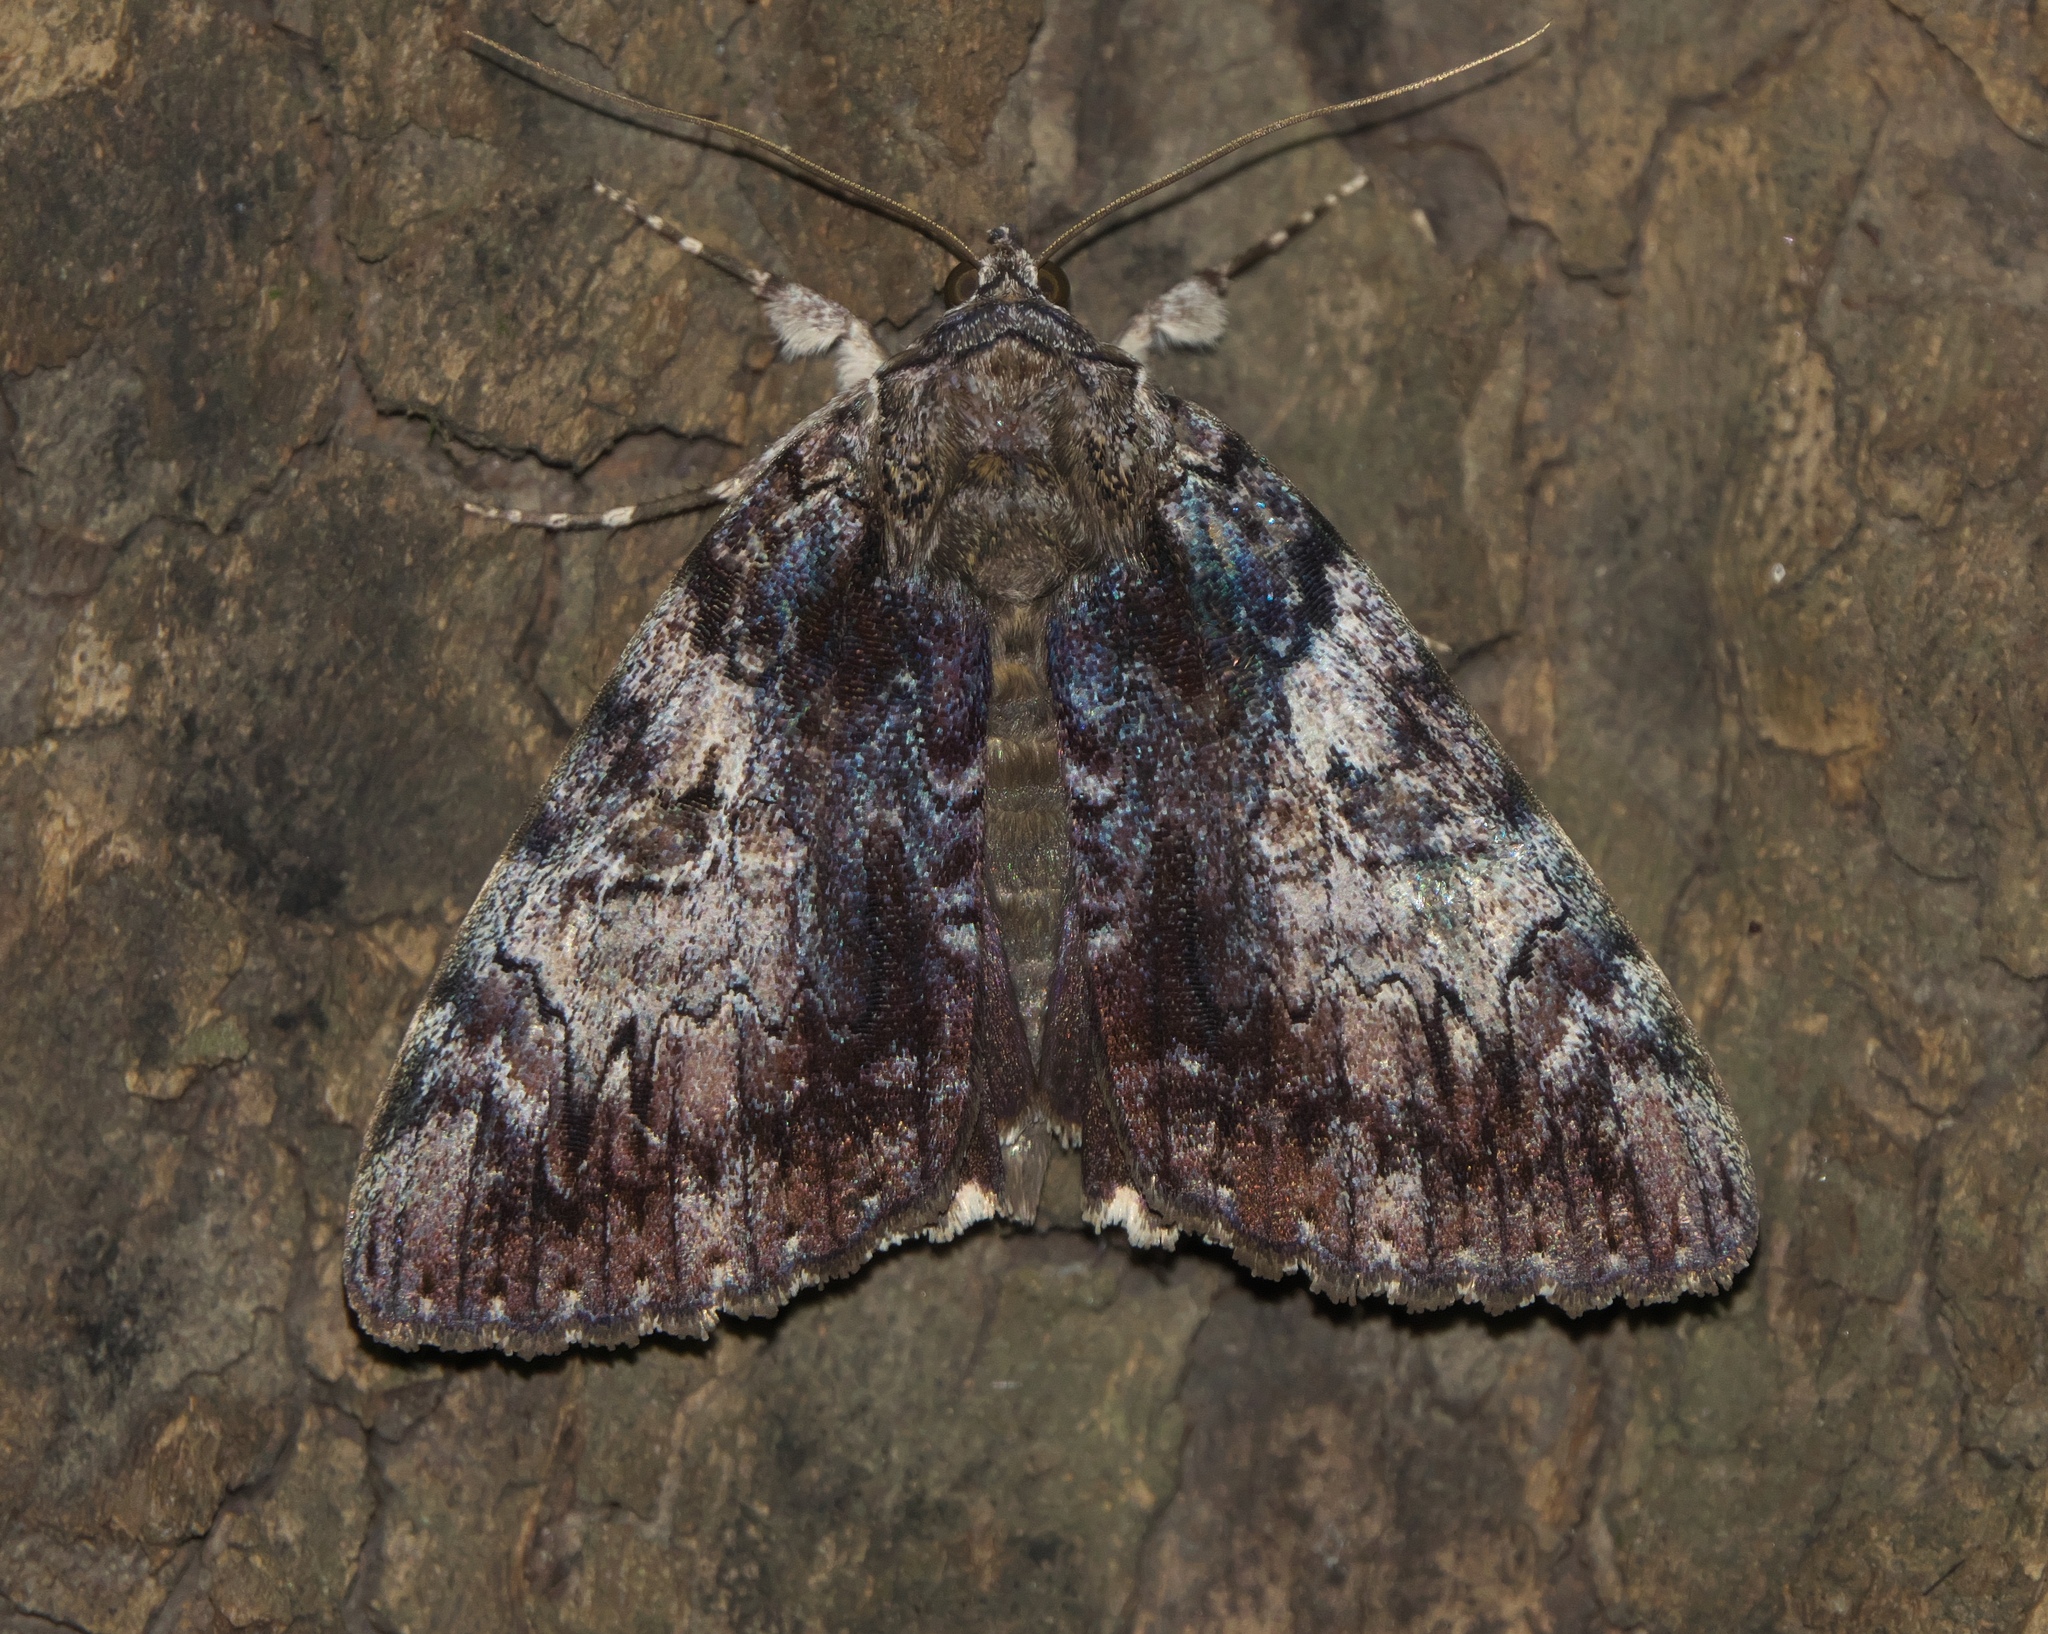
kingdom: Animalia
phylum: Arthropoda
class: Insecta
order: Lepidoptera
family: Erebidae
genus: Catocala
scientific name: Catocala lacrymosa
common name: Tearful underwing
